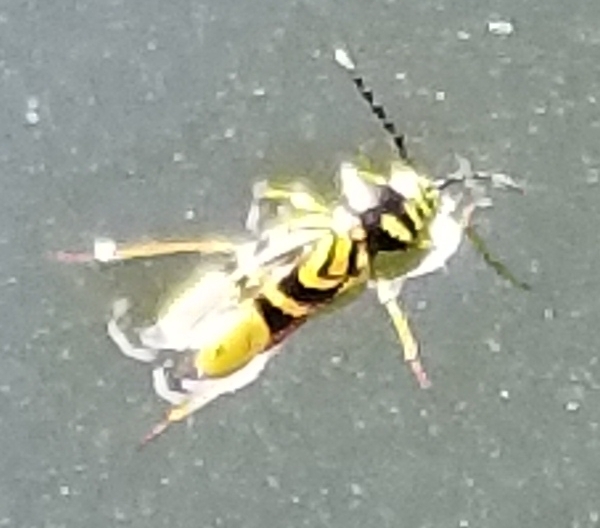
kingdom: Animalia
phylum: Arthropoda
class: Insecta
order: Coleoptera
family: Cerambycidae
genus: Glycobius
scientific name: Glycobius speciosus
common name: Sugar maple borer
